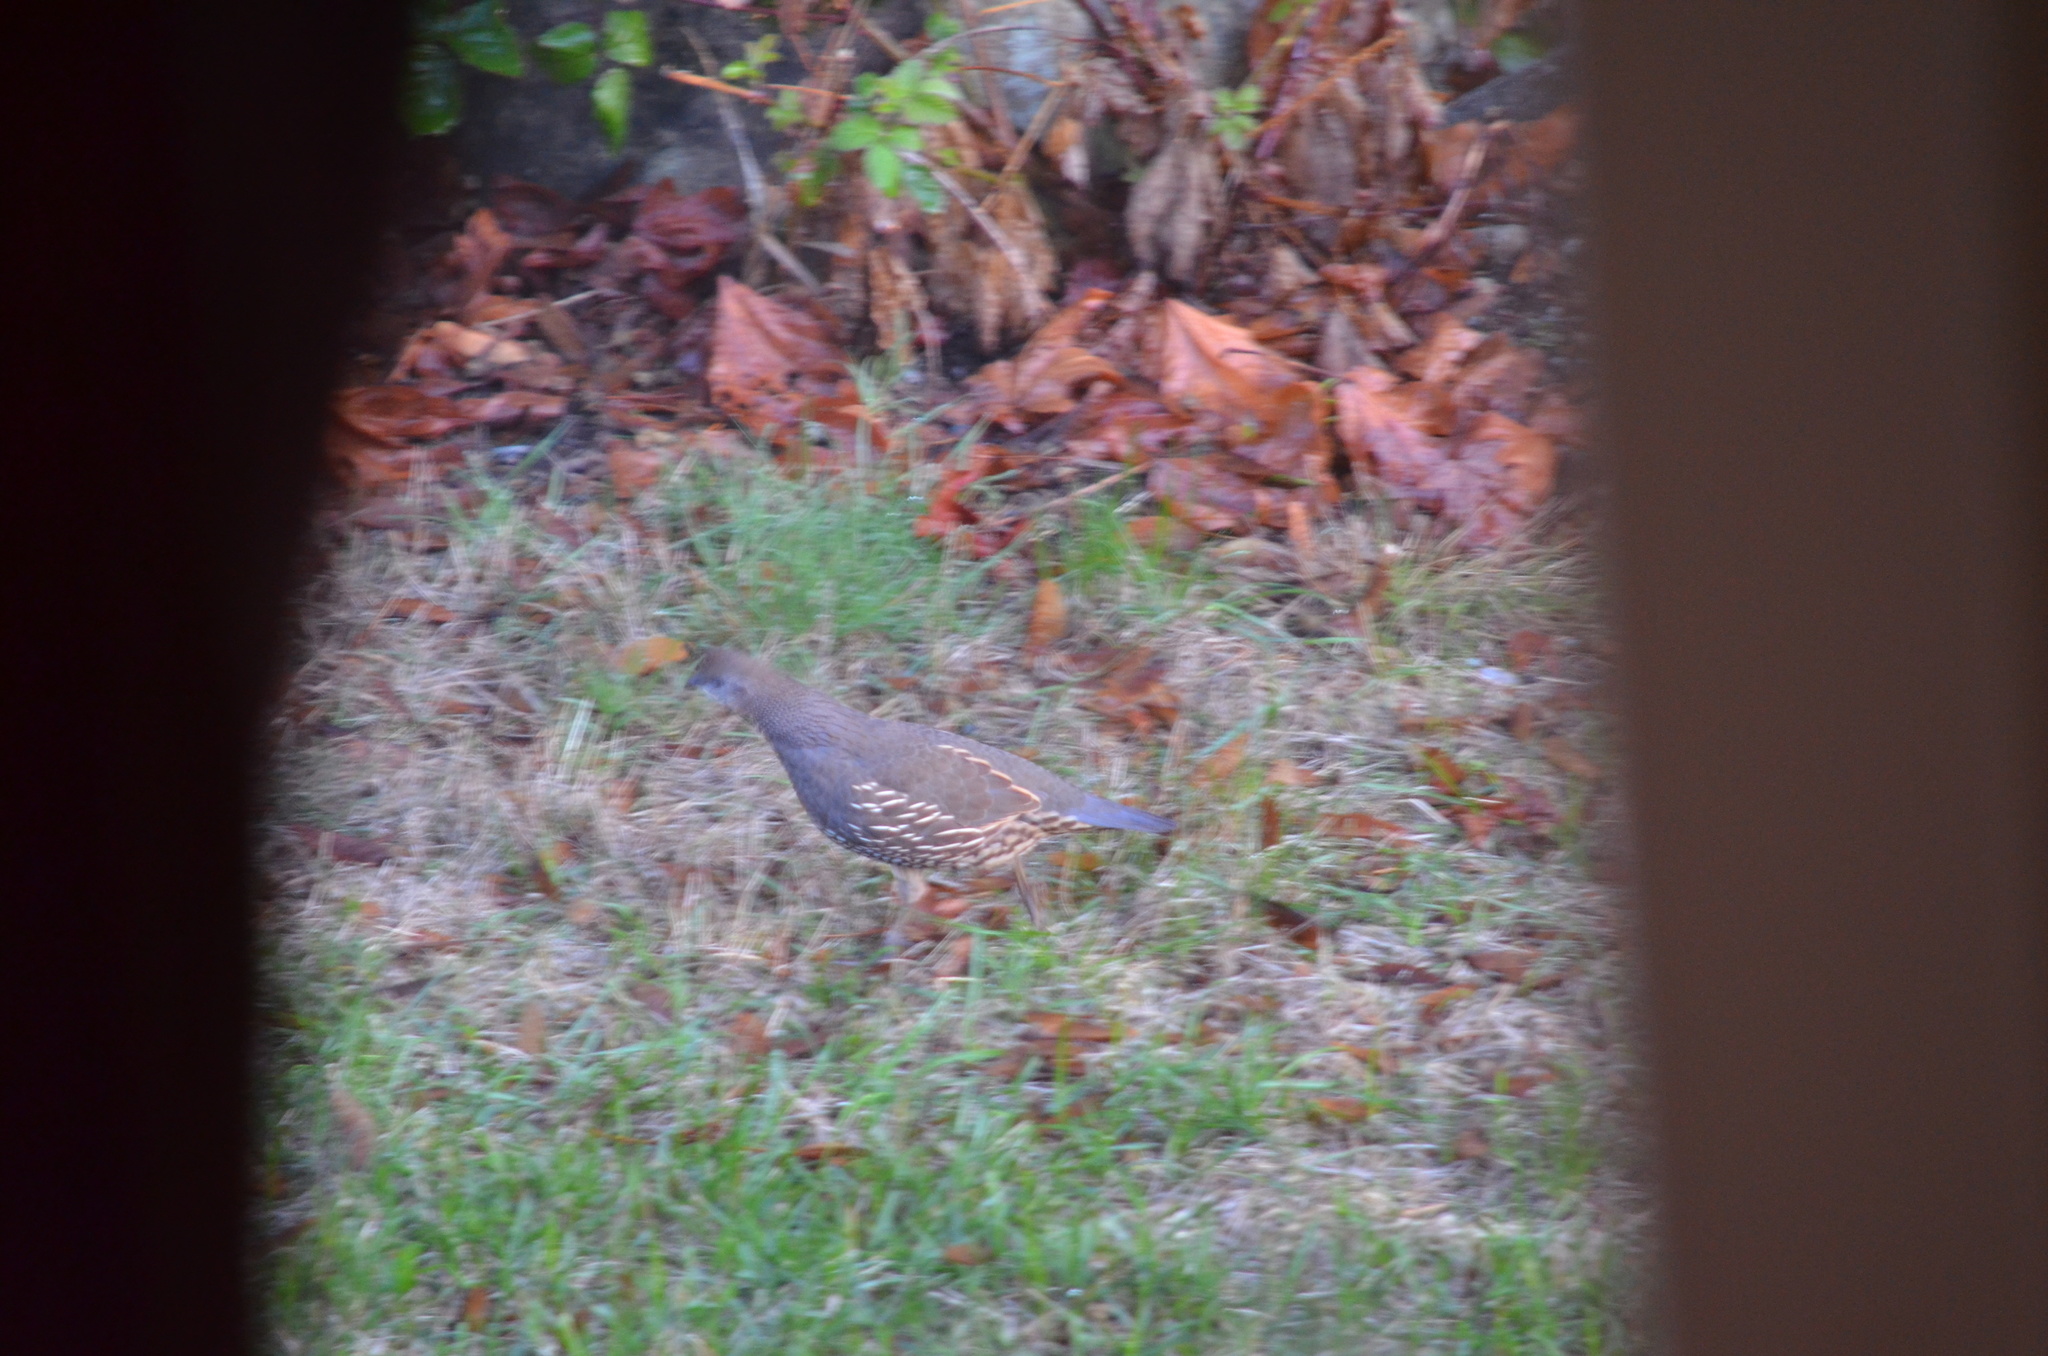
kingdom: Animalia
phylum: Chordata
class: Aves
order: Galliformes
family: Odontophoridae
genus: Callipepla
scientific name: Callipepla californica
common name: California quail
